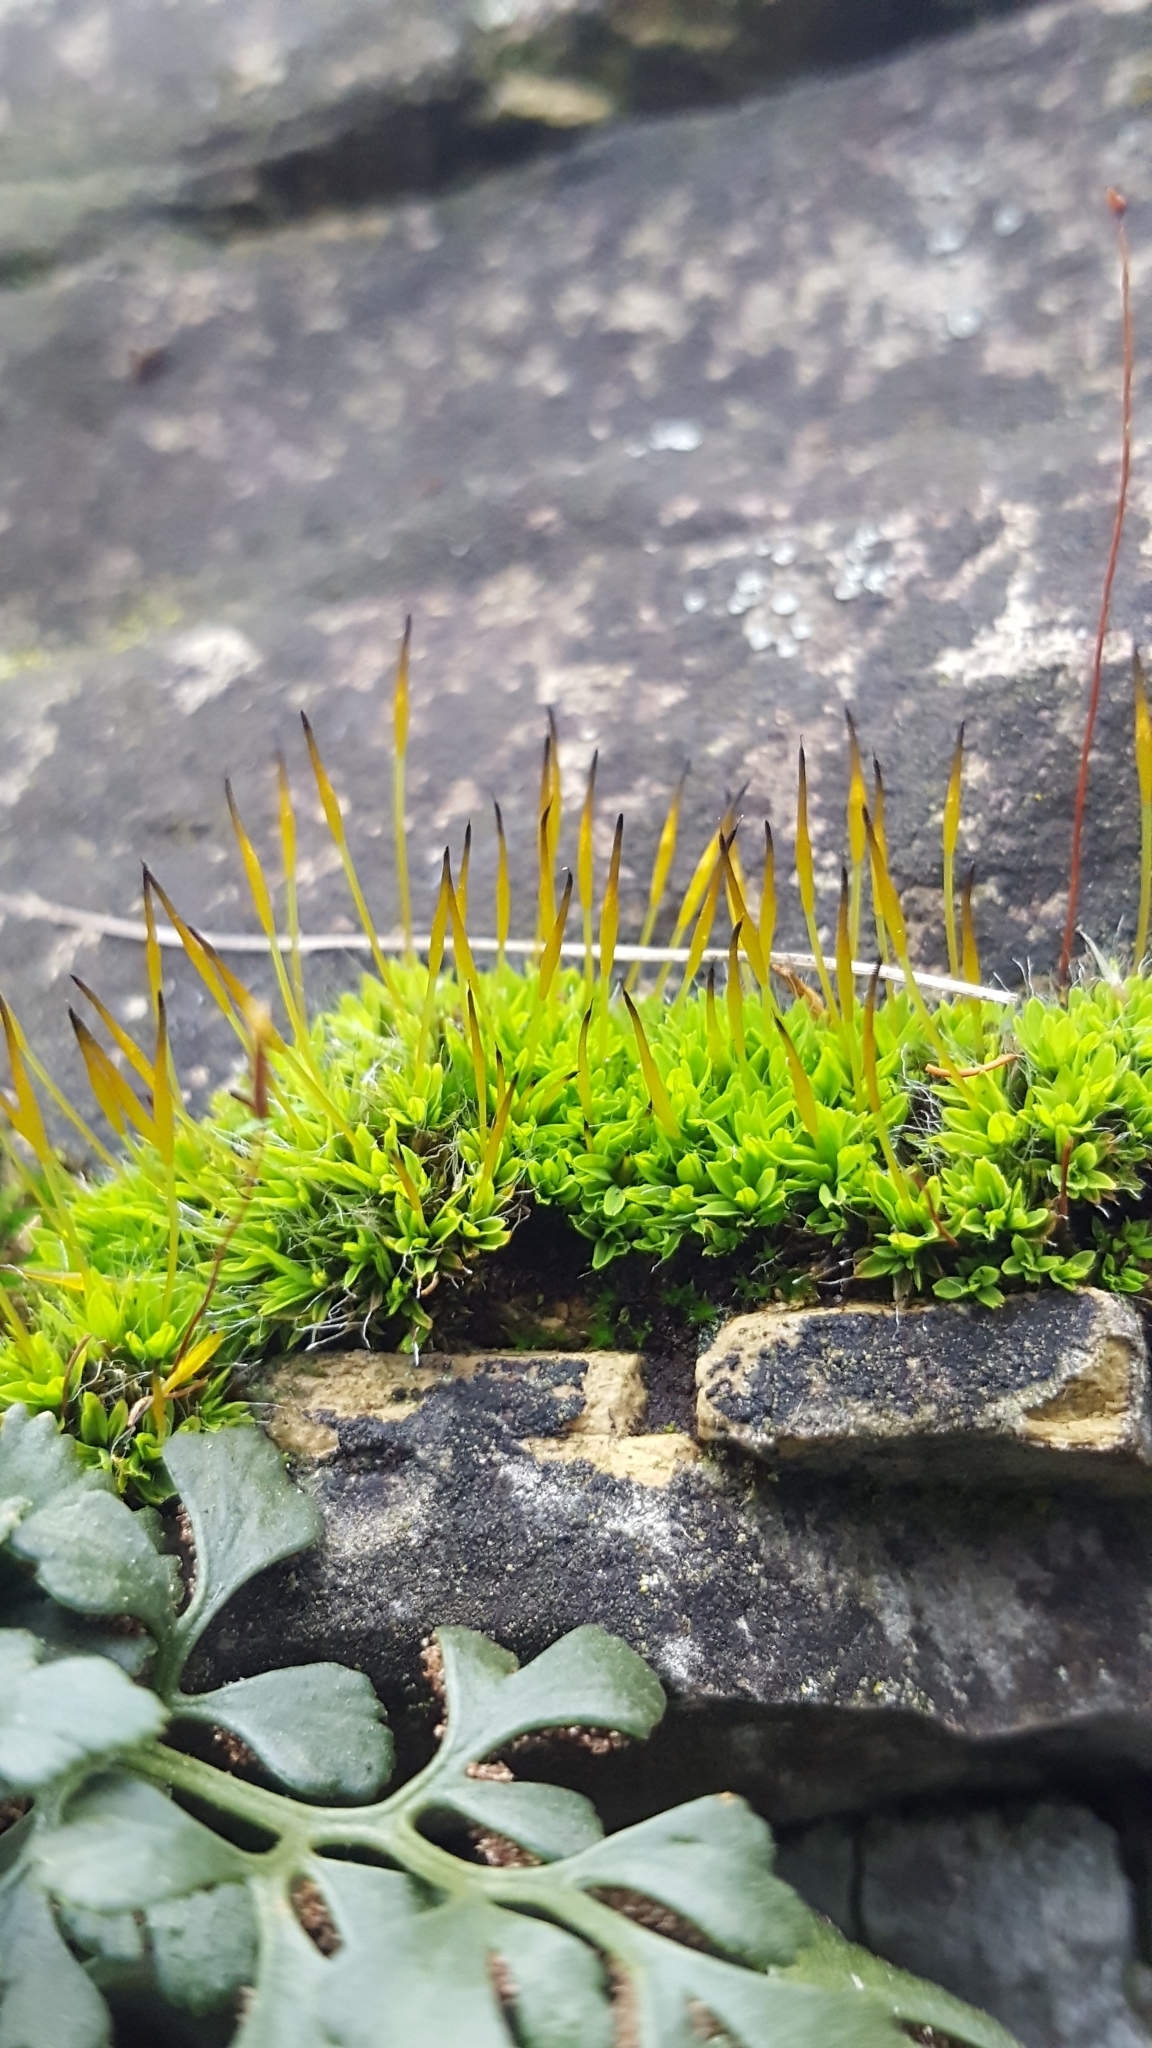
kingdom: Plantae
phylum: Bryophyta
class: Bryopsida
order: Pottiales
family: Pottiaceae
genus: Tortula
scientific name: Tortula muralis
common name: Wall screw-moss
